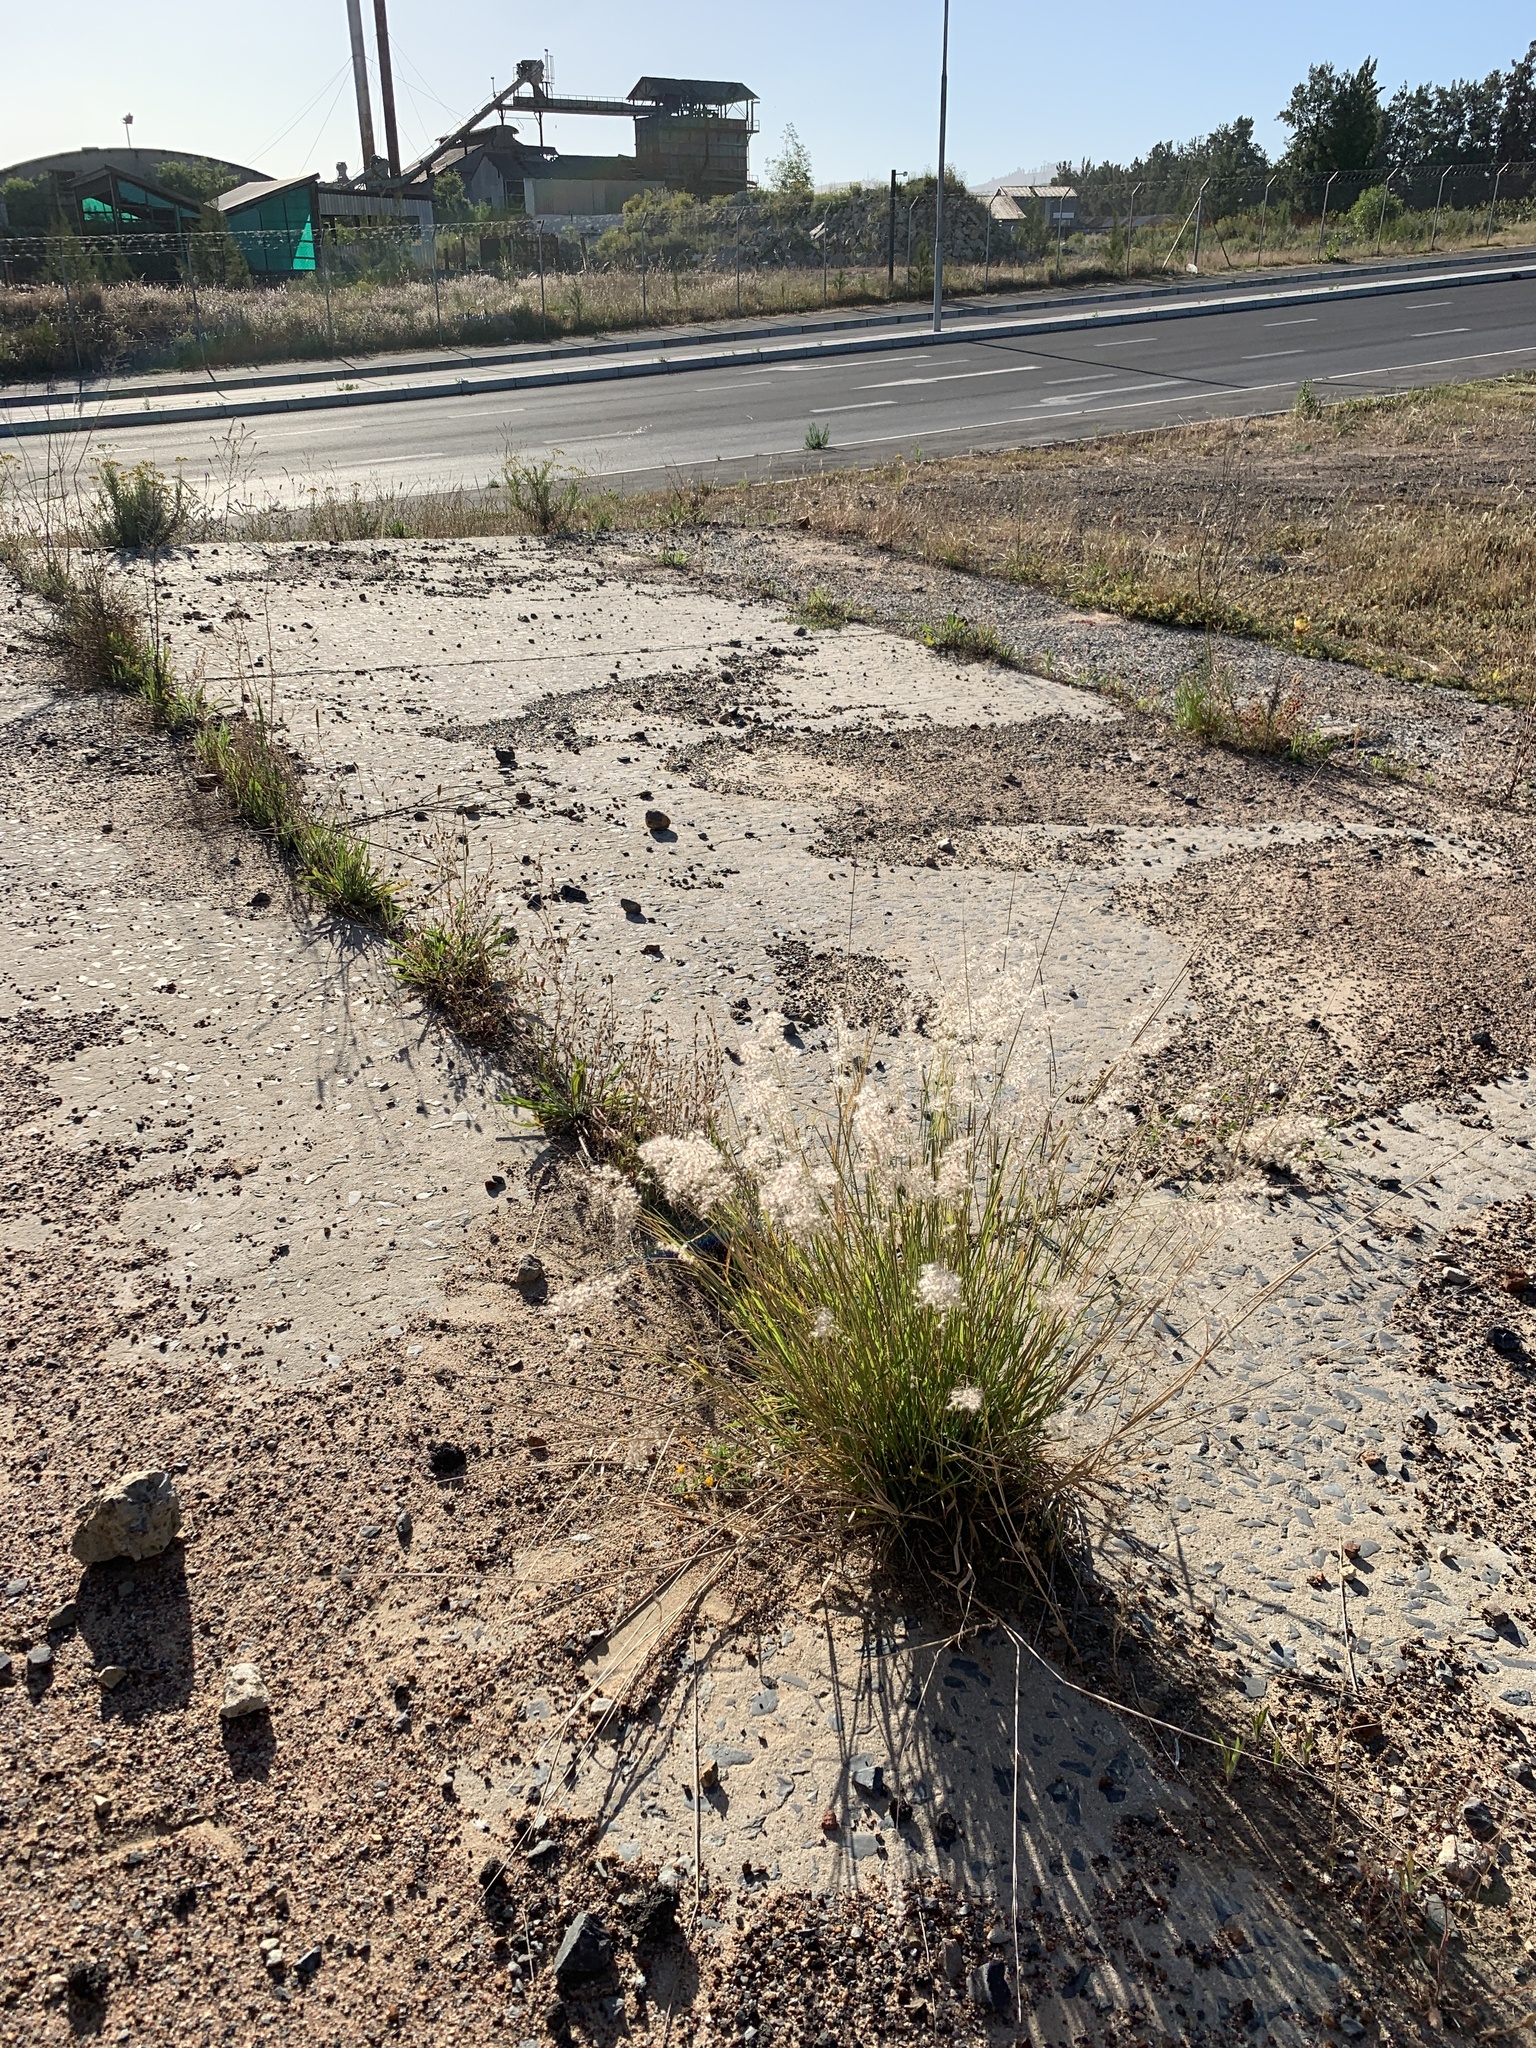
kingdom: Plantae
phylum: Tracheophyta
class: Liliopsida
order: Poales
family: Poaceae
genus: Melinis
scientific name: Melinis repens
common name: Rose natal grass
